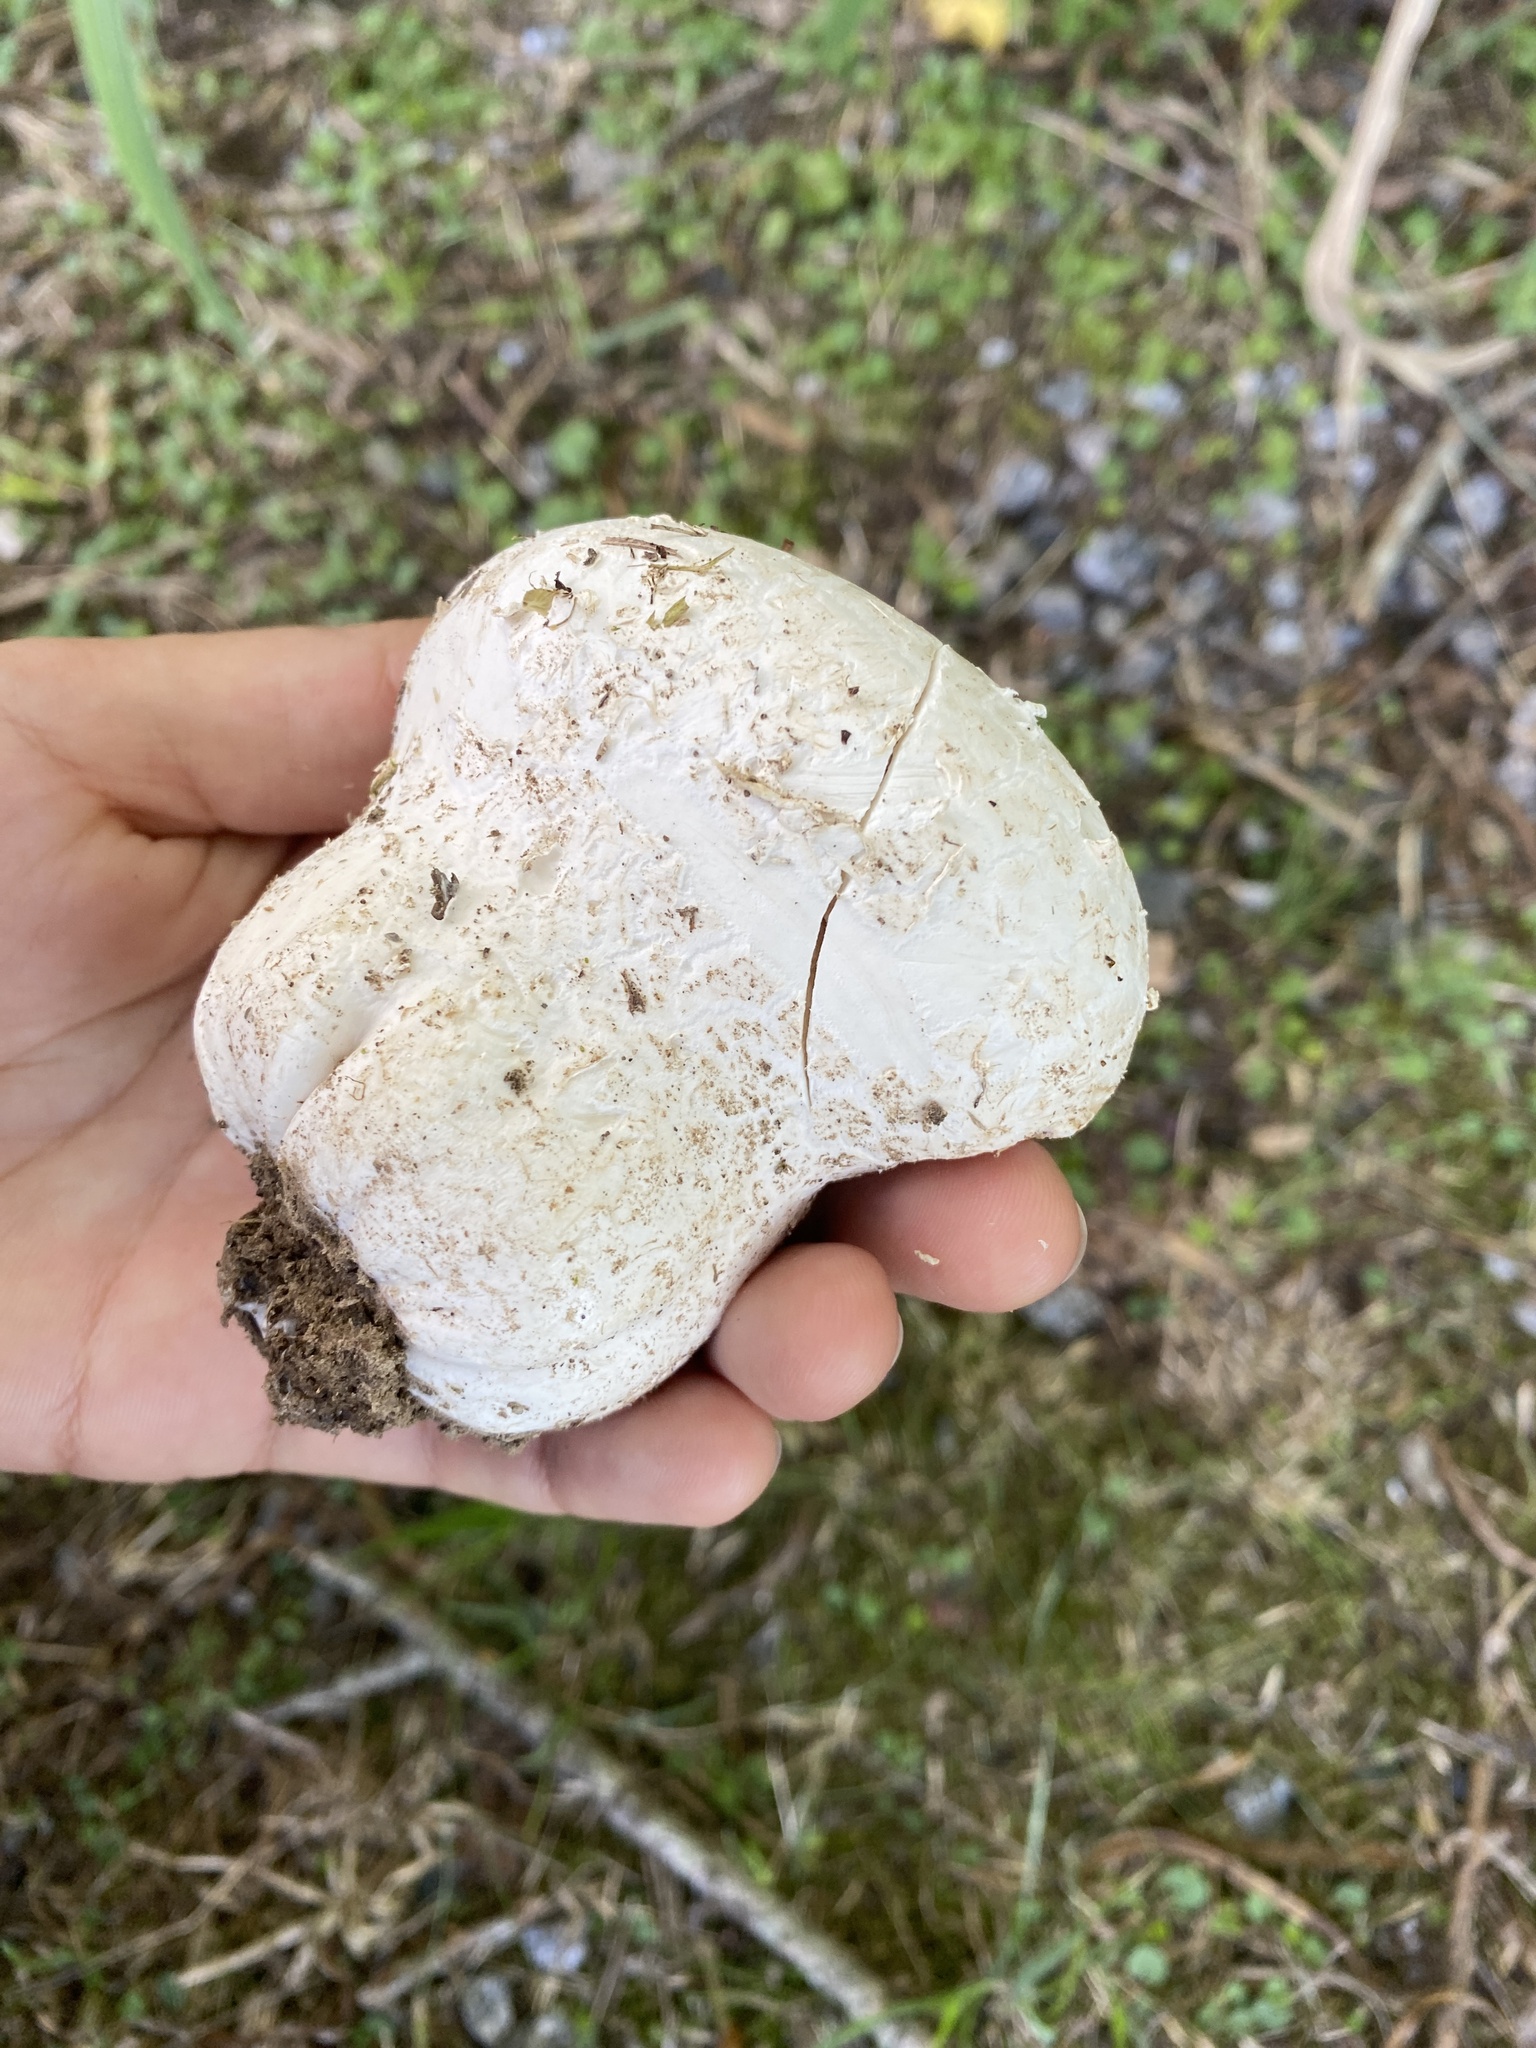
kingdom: Fungi
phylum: Basidiomycota
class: Agaricomycetes
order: Agaricales
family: Lycoperdaceae
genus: Calvatia
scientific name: Calvatia cyathiformis
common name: Purple-spored puffball
